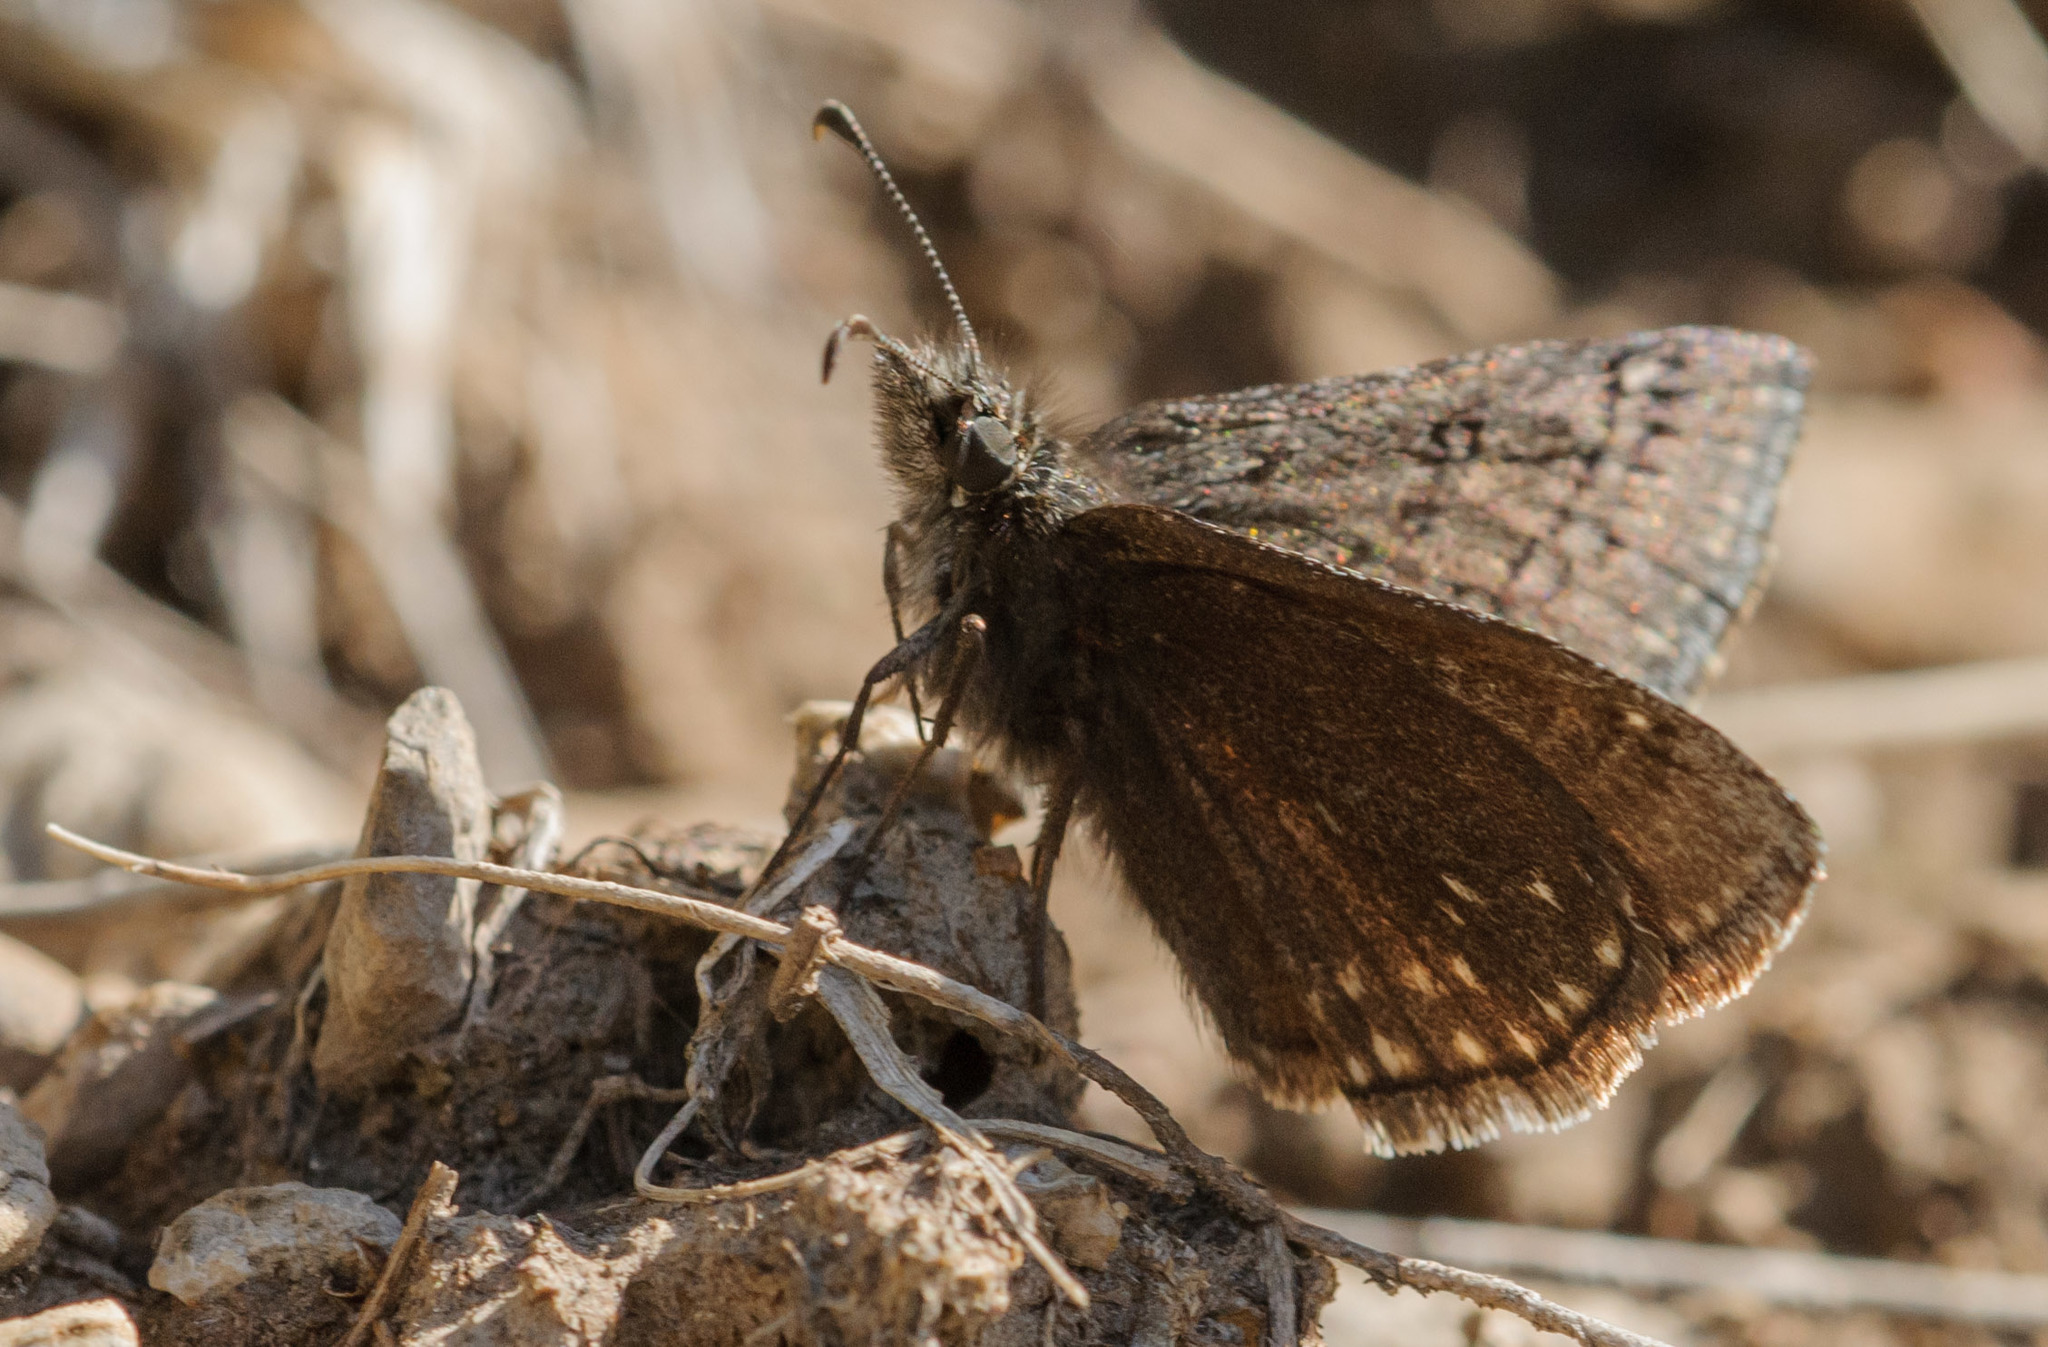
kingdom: Animalia
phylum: Arthropoda
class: Insecta
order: Lepidoptera
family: Hesperiidae
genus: Erynnis
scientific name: Erynnis brizo
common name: Sleepy duskywing
